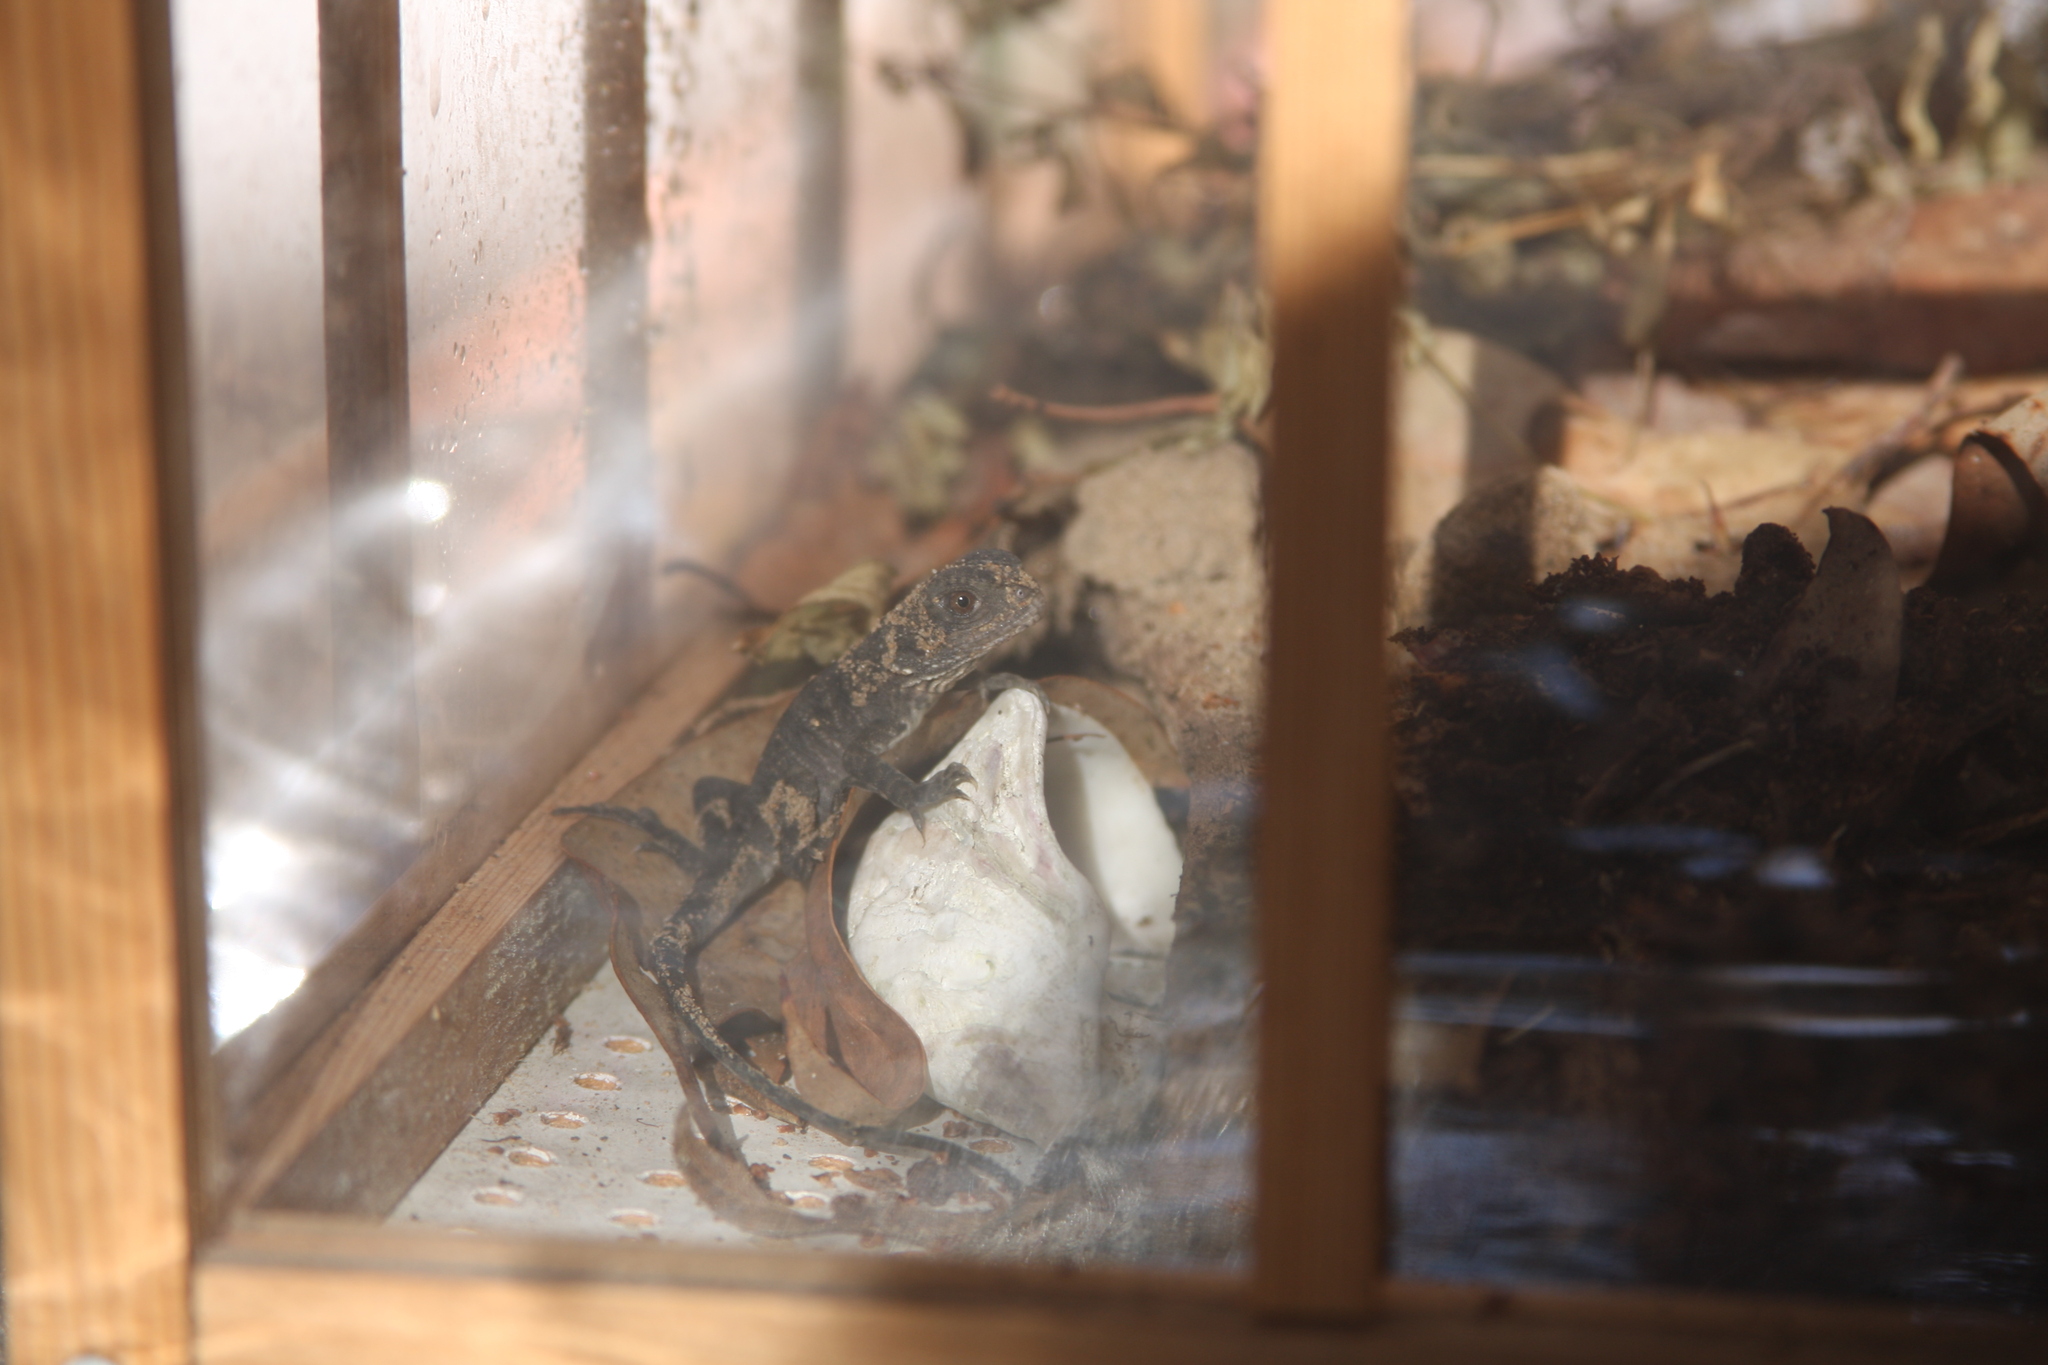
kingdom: Animalia
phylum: Chordata
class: Squamata
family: Agamidae
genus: Intellagama
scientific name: Intellagama lesueurii
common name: Eastern water dragon
